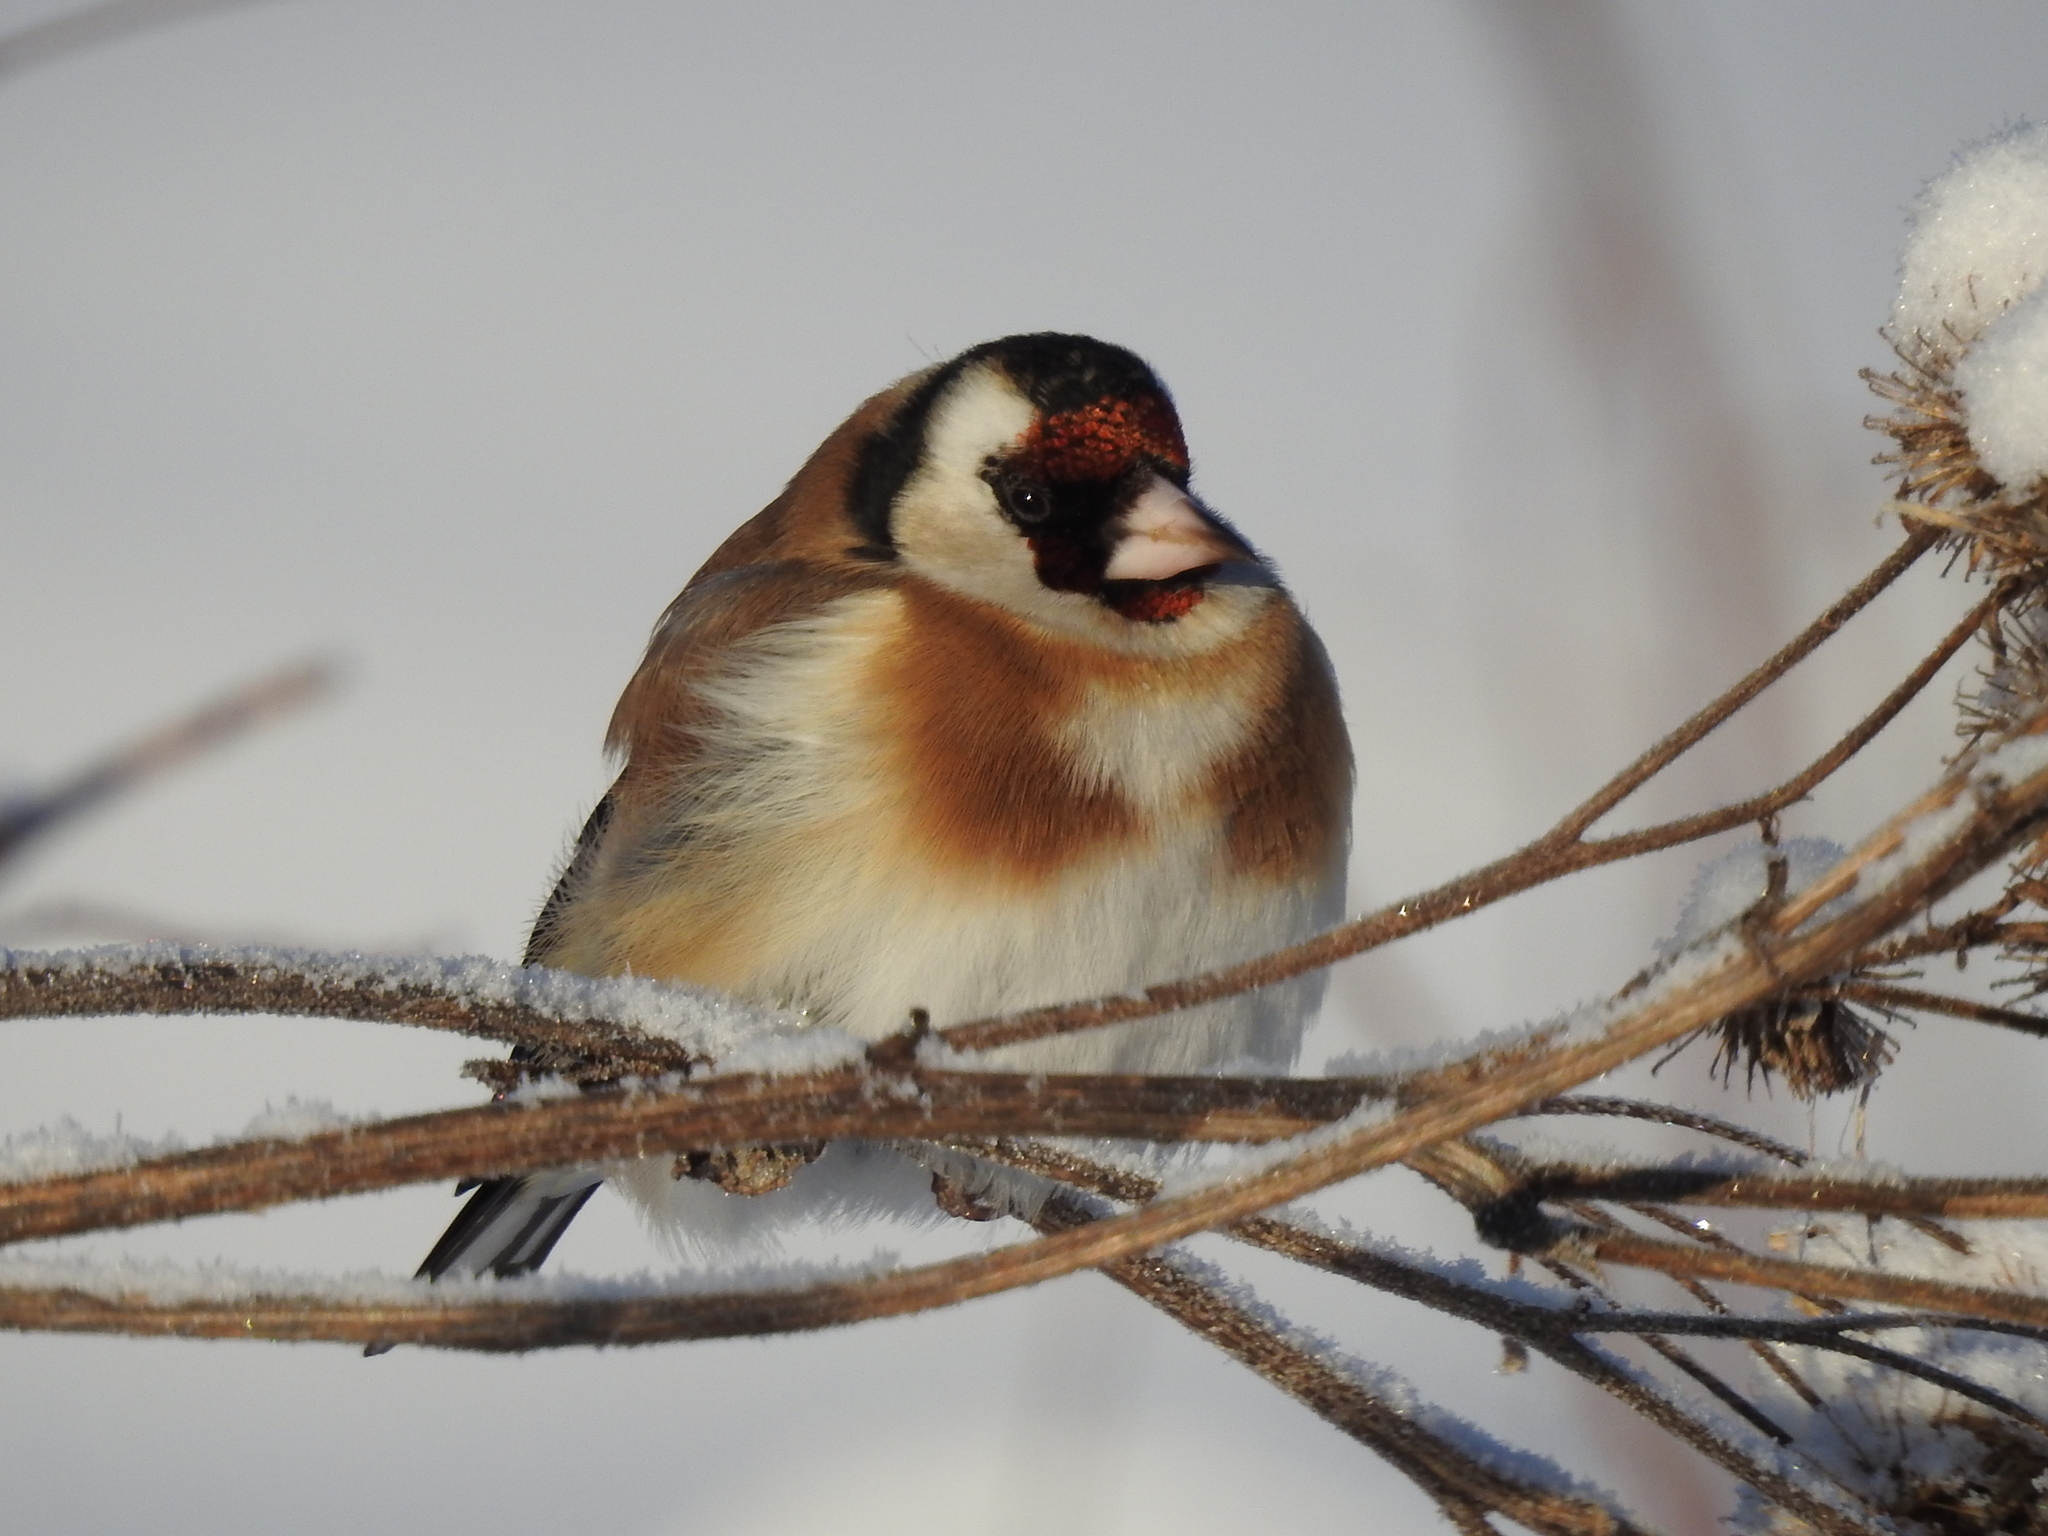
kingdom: Animalia
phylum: Chordata
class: Aves
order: Passeriformes
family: Fringillidae
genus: Carduelis
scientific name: Carduelis carduelis
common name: European goldfinch
